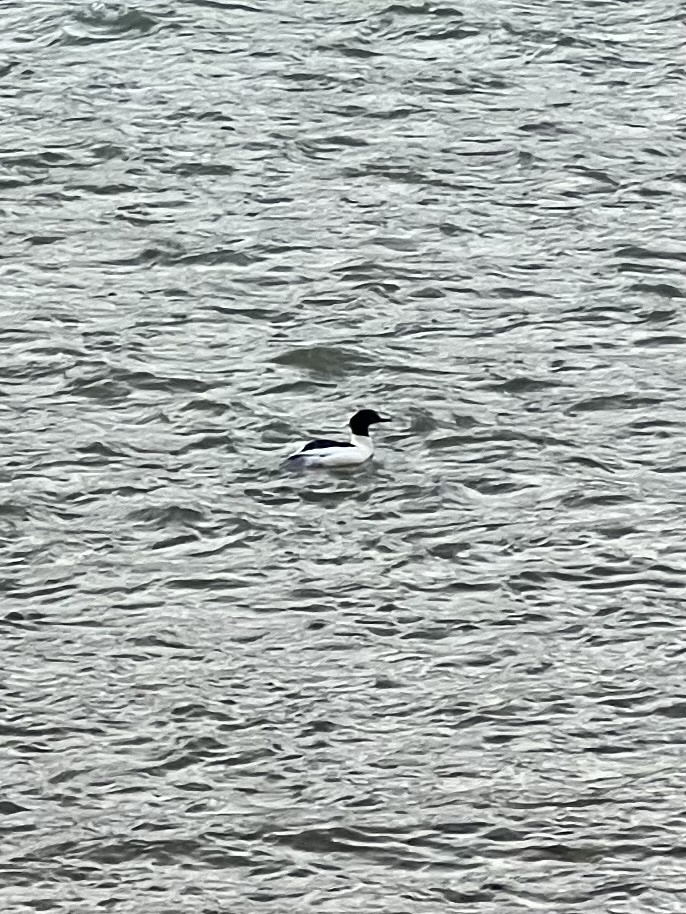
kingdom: Animalia
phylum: Chordata
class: Aves
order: Anseriformes
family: Anatidae
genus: Mergus
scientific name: Mergus merganser
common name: Common merganser
